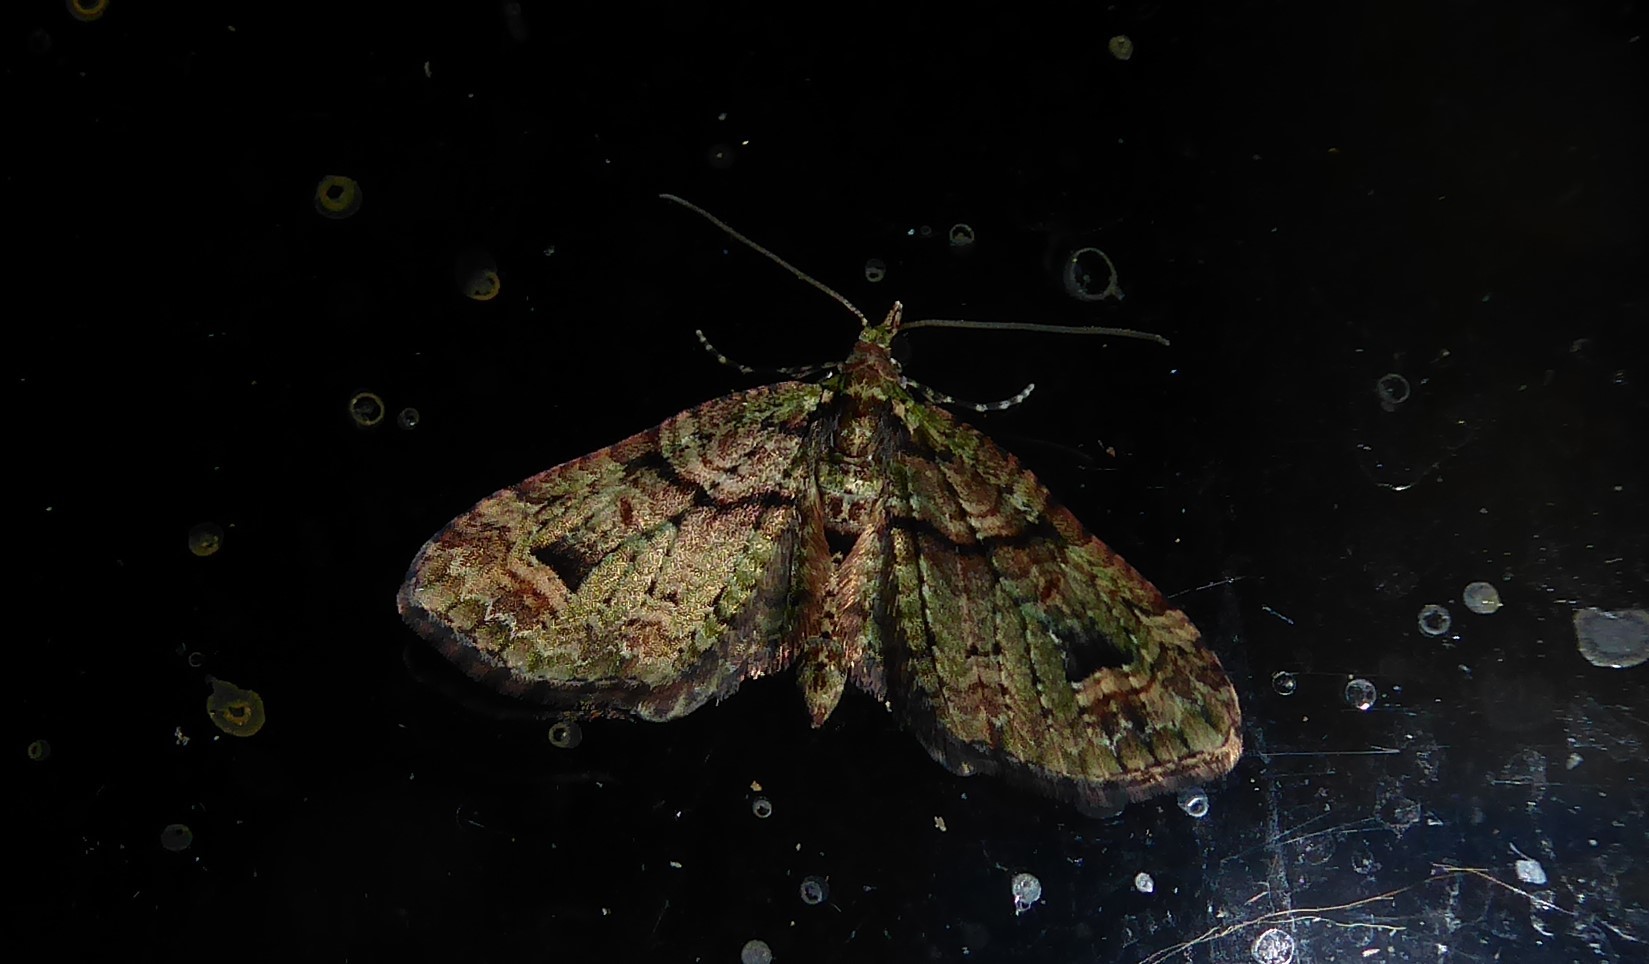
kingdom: Animalia
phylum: Arthropoda
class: Insecta
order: Lepidoptera
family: Geometridae
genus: Idaea
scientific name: Idaea mutanda
